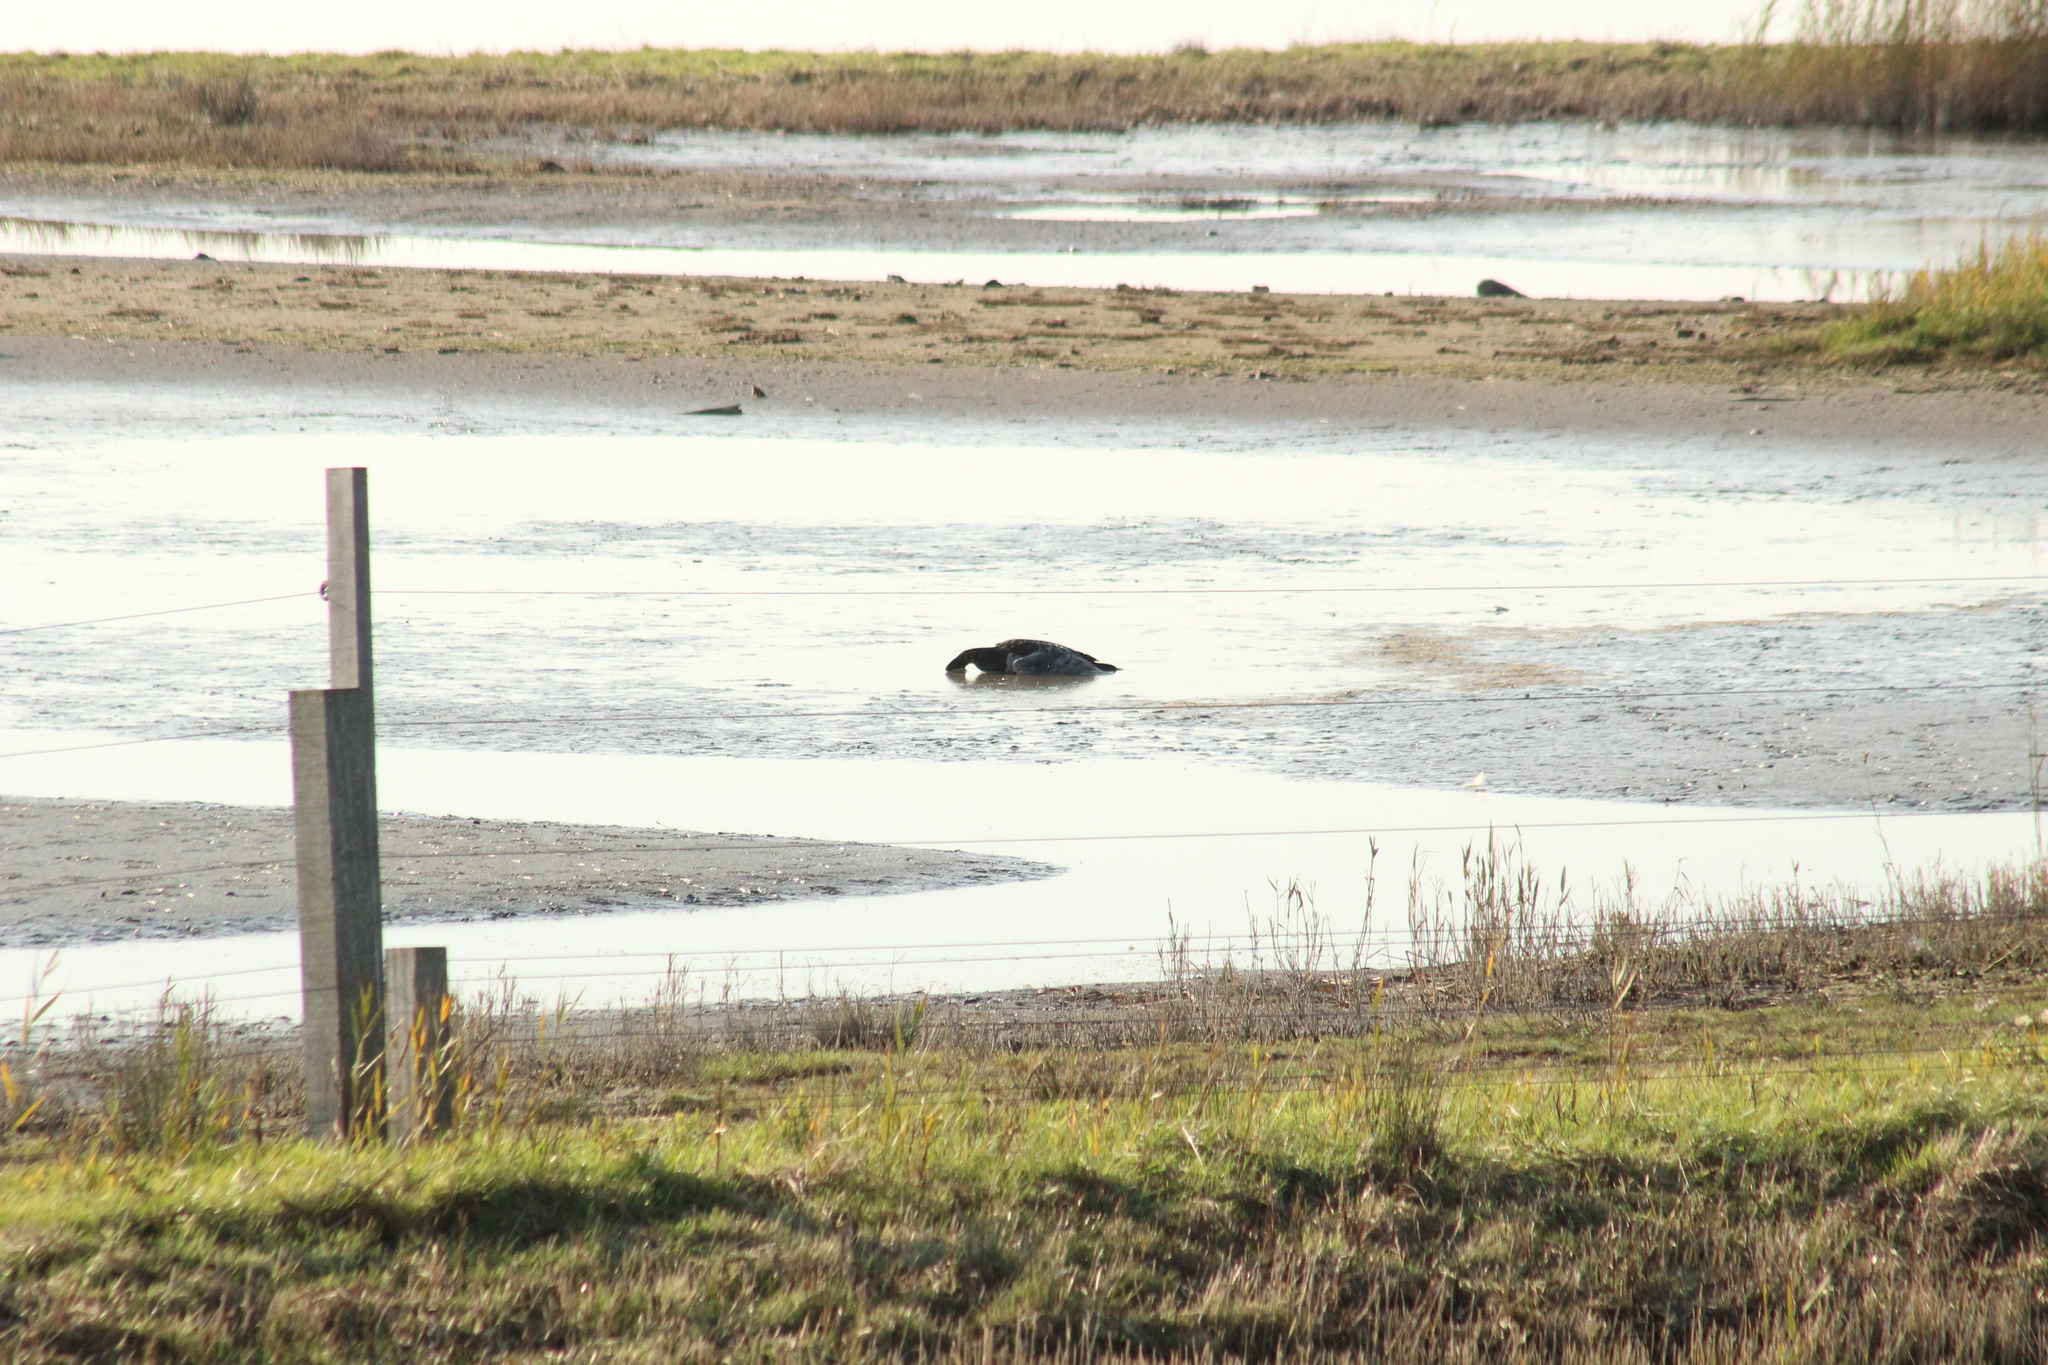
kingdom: Animalia
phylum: Chordata
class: Aves
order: Anseriformes
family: Anatidae
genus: Branta
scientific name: Branta leucopsis
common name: Barnacle goose
